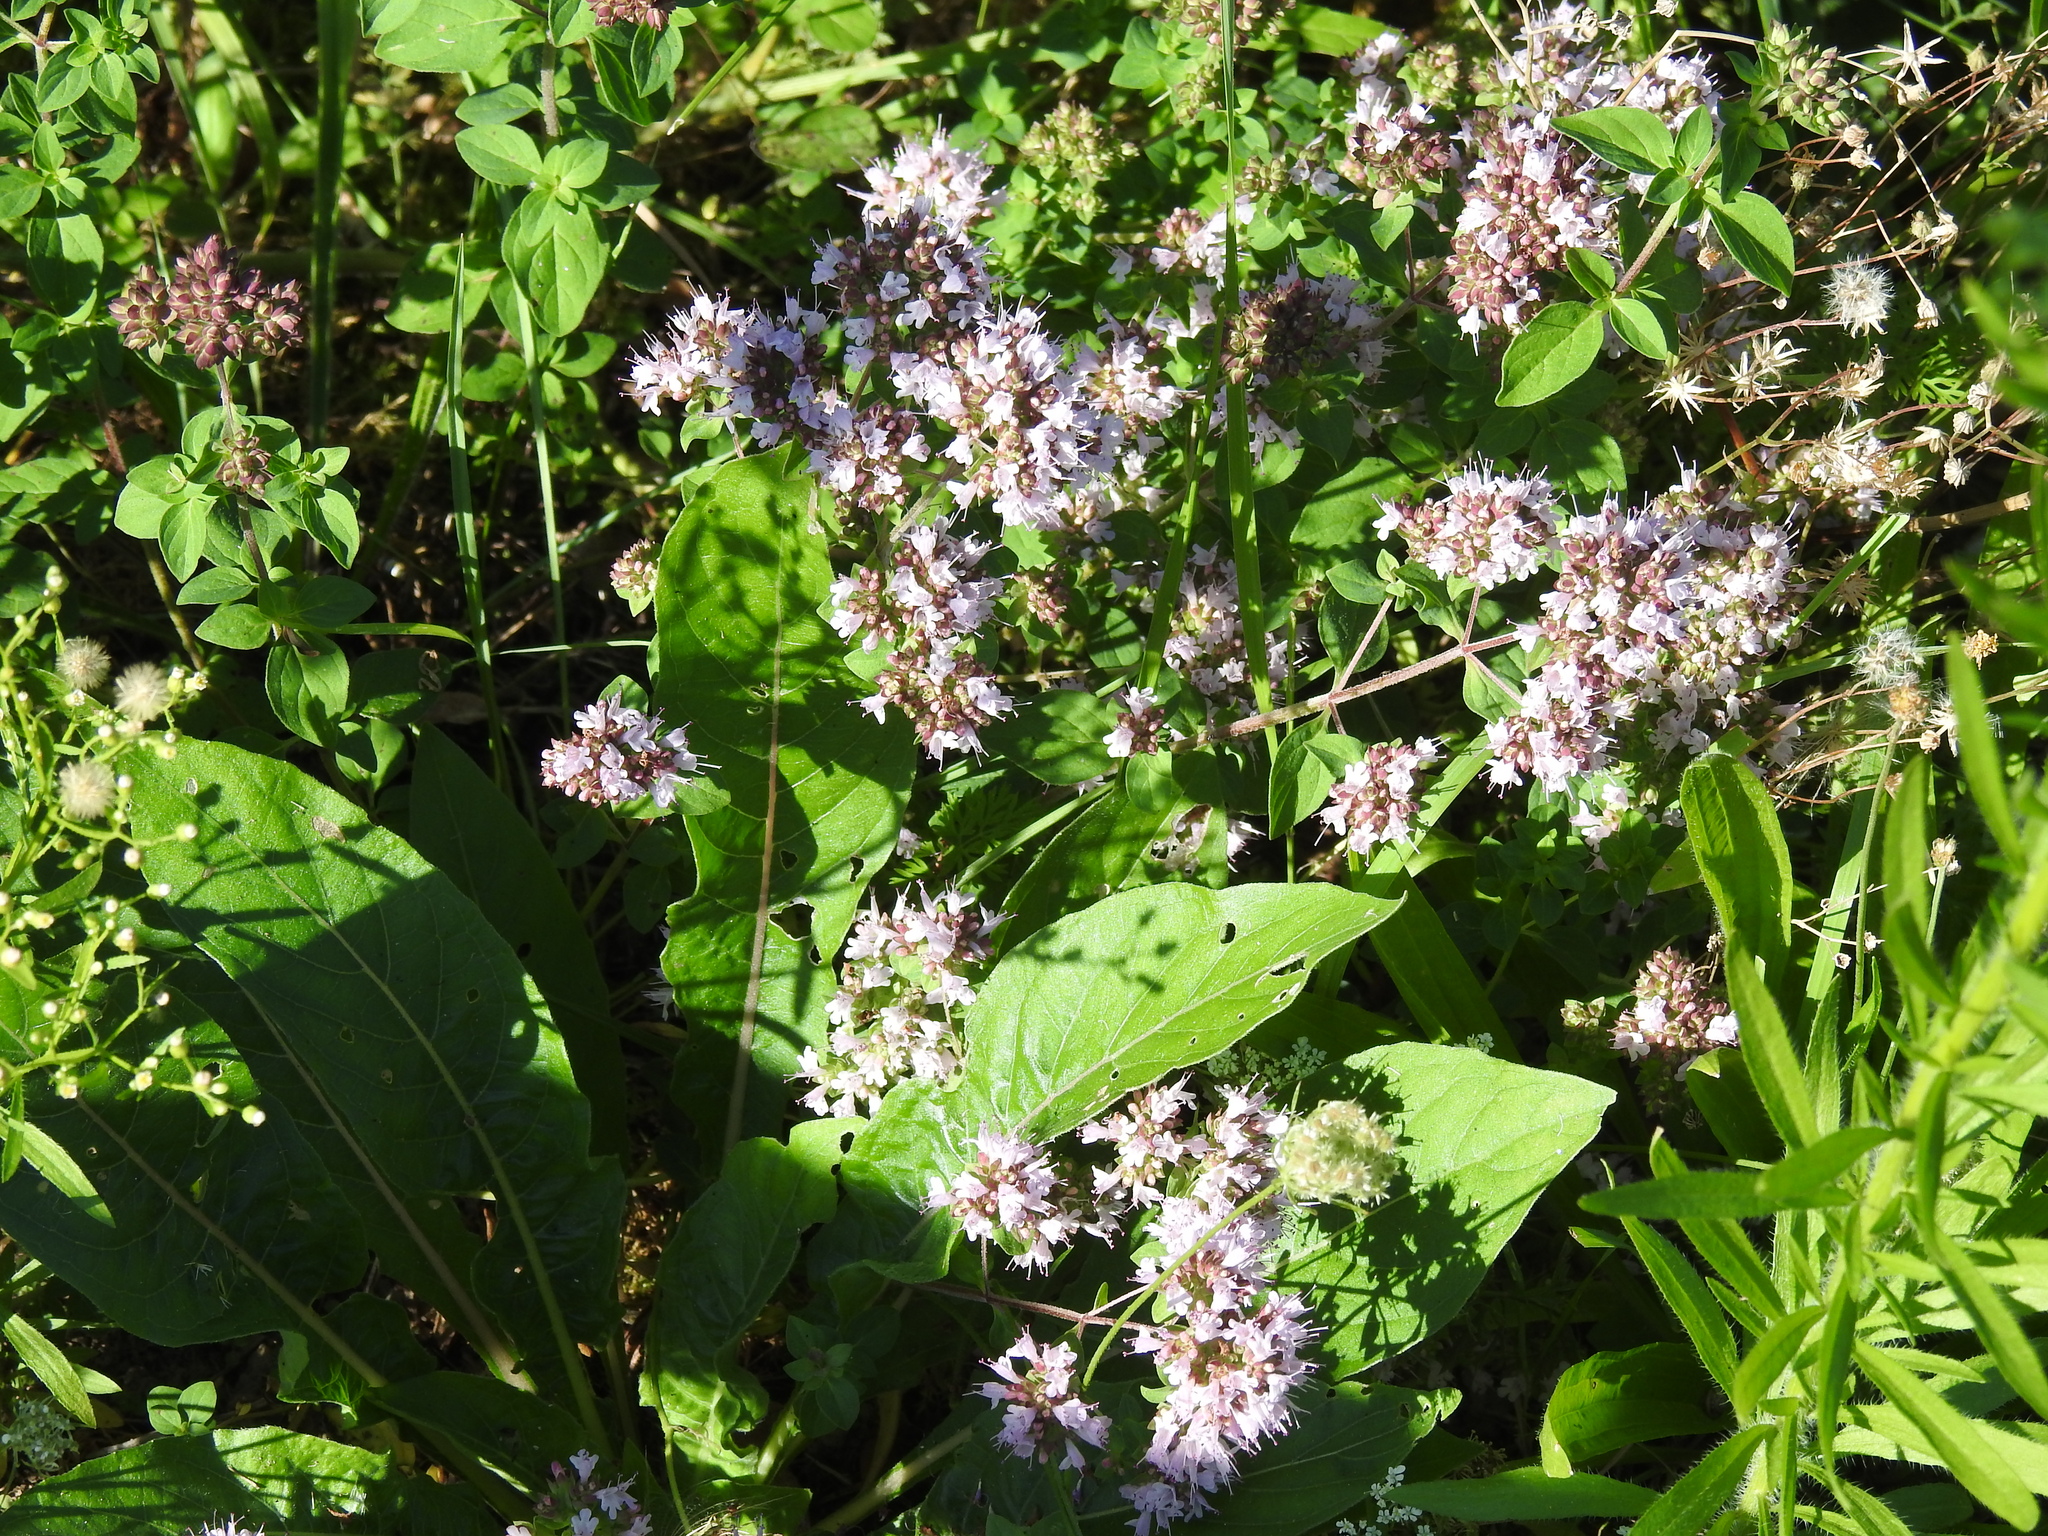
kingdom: Plantae
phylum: Tracheophyta
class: Magnoliopsida
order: Lamiales
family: Lamiaceae
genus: Origanum
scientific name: Origanum vulgare
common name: Wild marjoram
